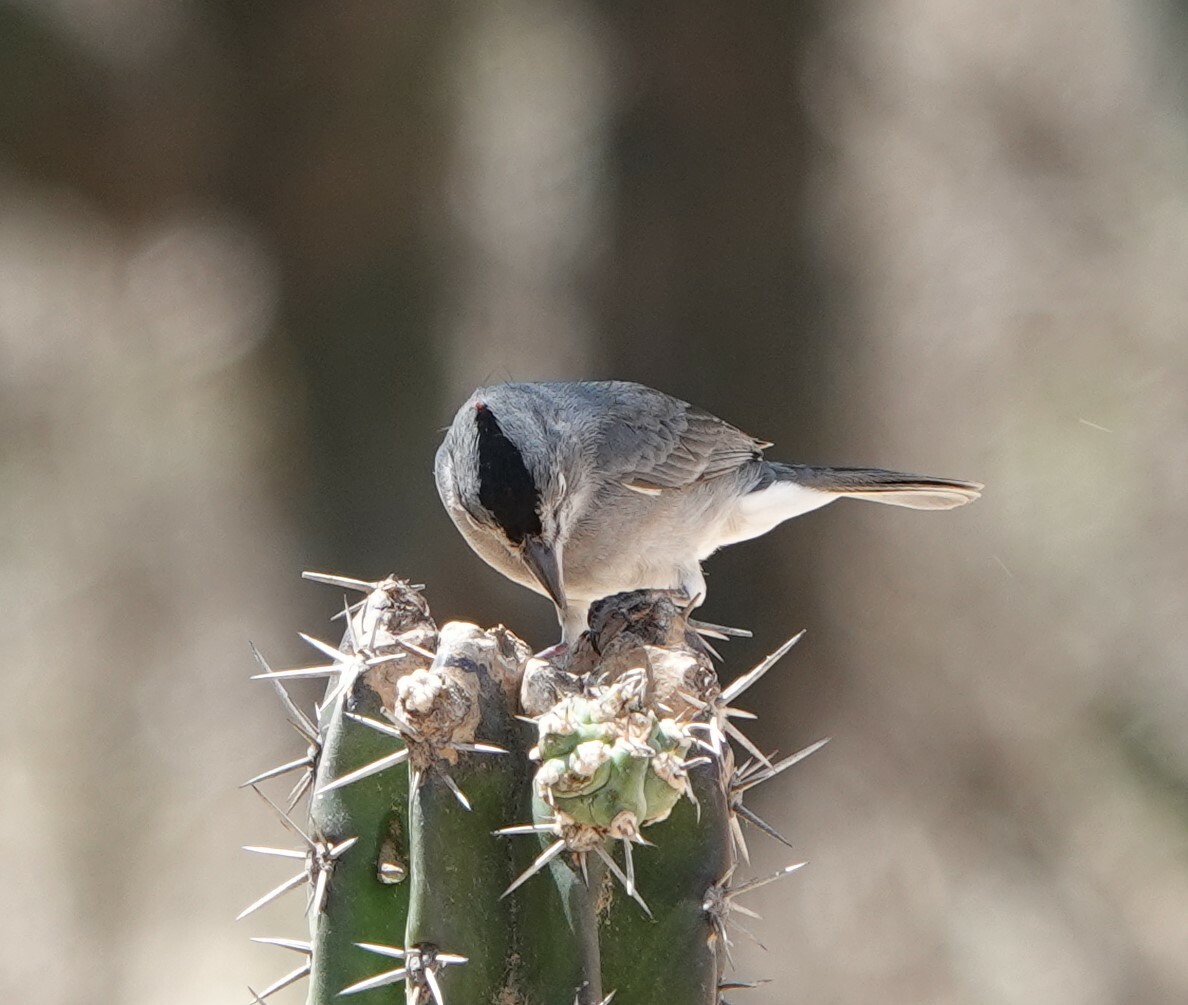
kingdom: Animalia
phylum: Chordata
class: Aves
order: Passeriformes
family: Thraupidae
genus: Coryphospingus
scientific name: Coryphospingus pileatus
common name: Grey pileated finch
